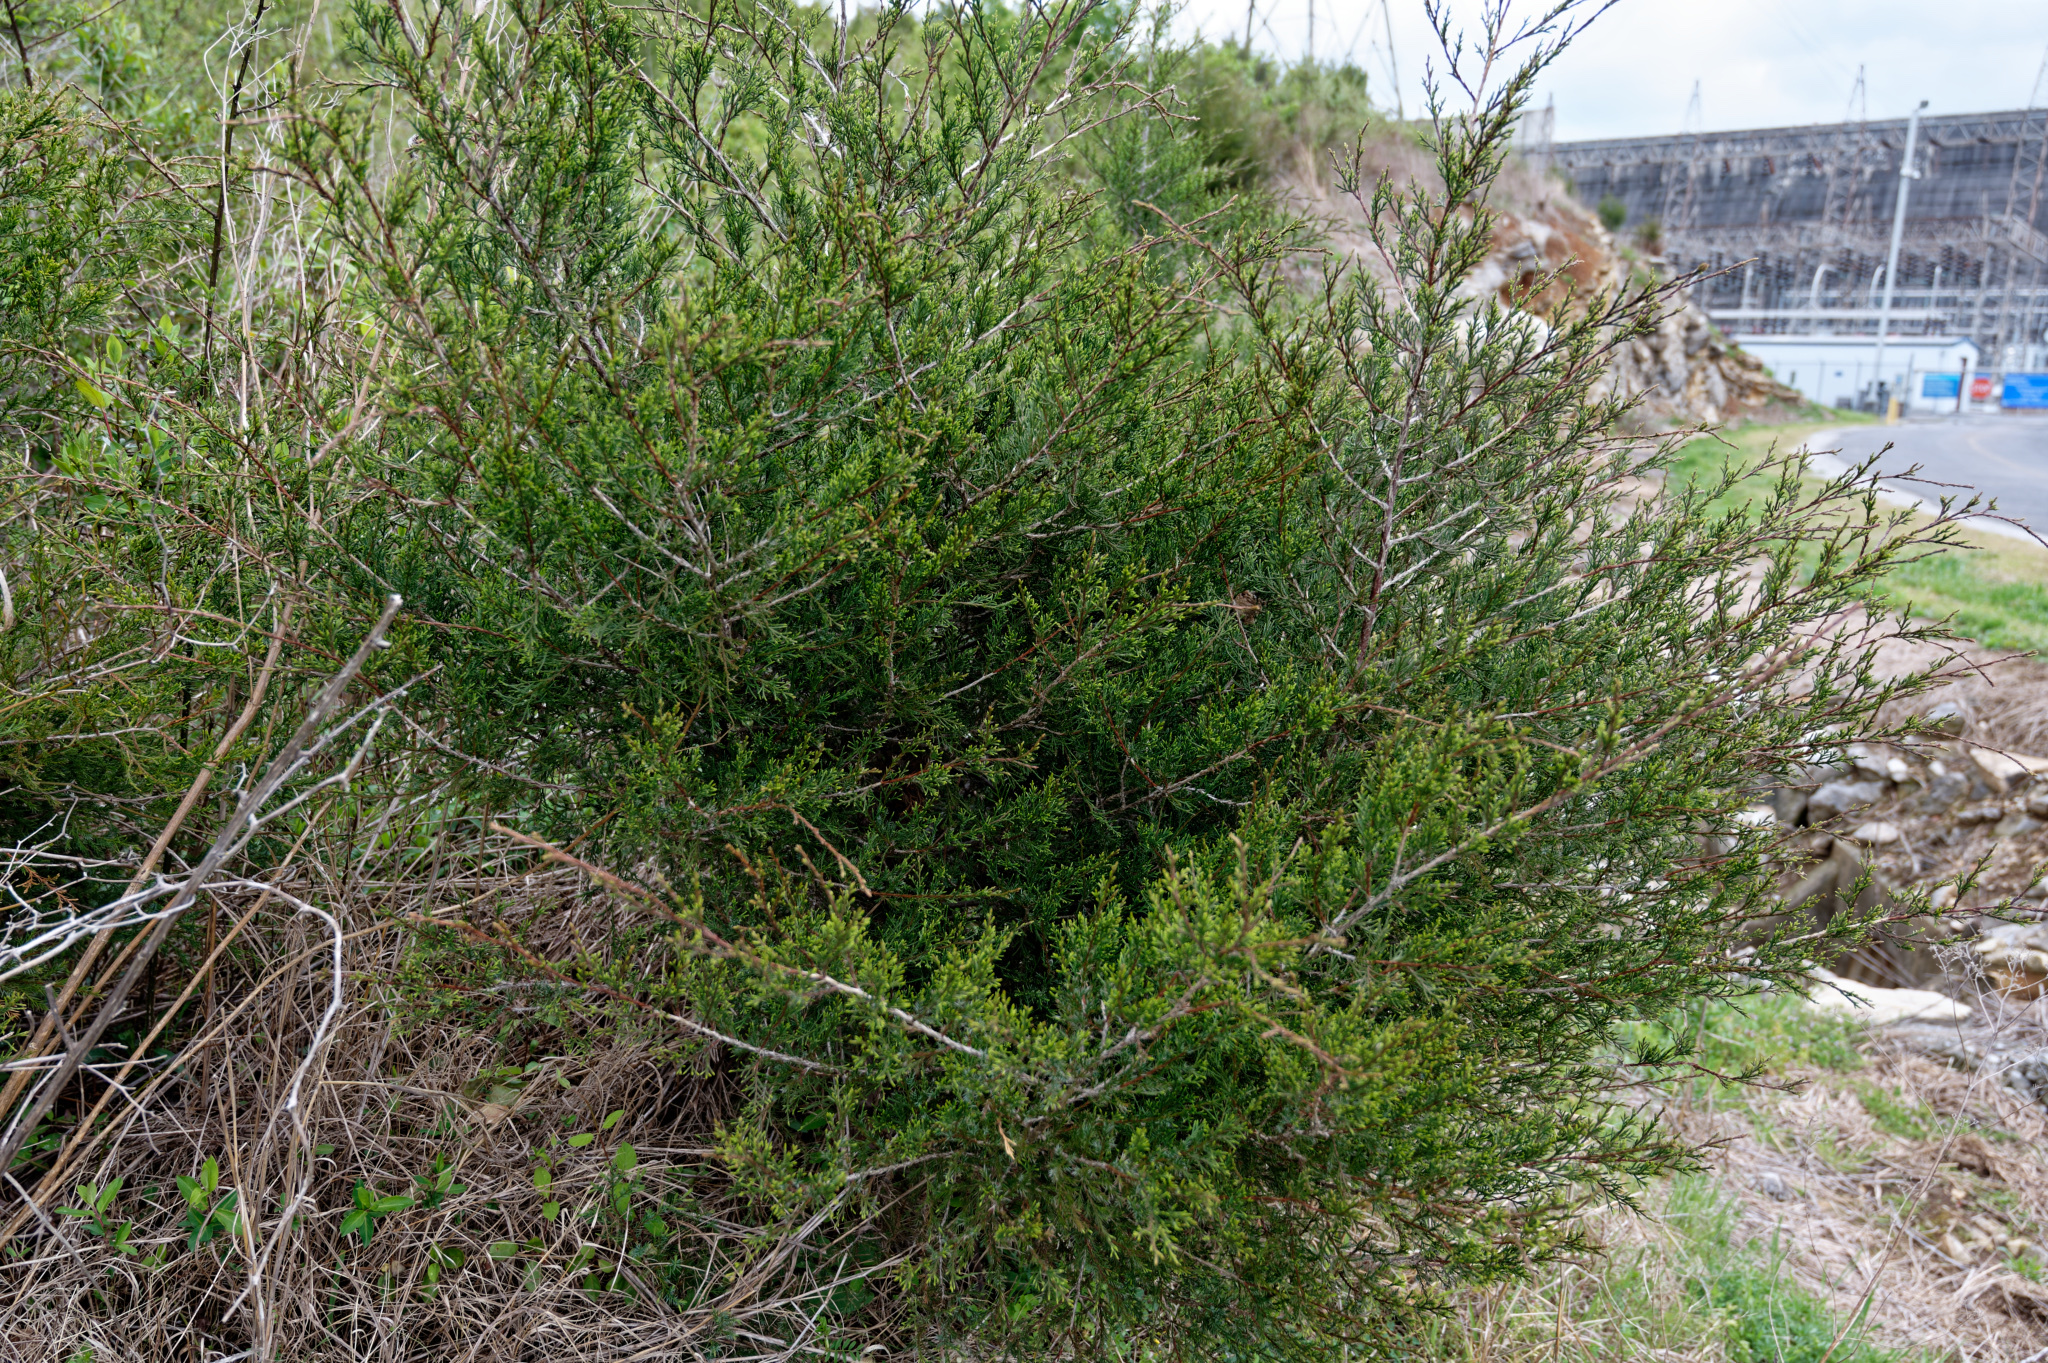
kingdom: Plantae
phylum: Tracheophyta
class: Pinopsida
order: Pinales
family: Cupressaceae
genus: Juniperus
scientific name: Juniperus virginiana
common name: Red juniper
